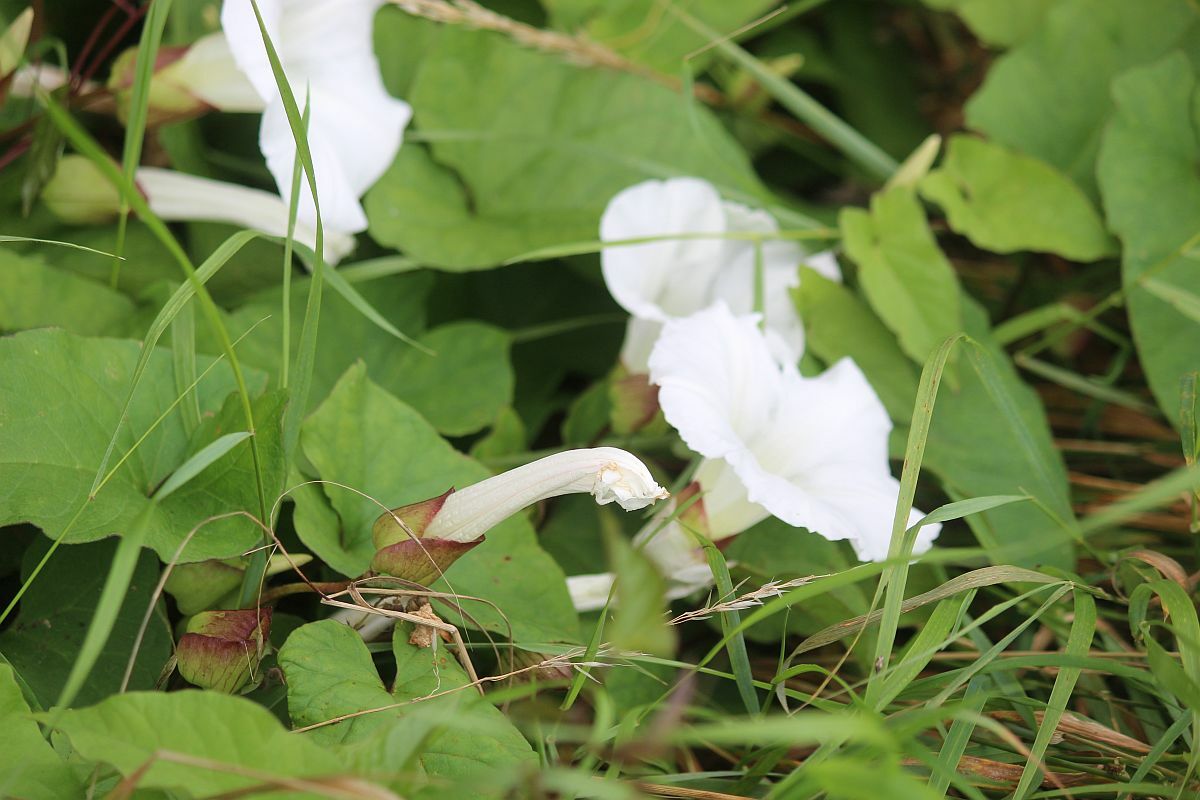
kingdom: Plantae
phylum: Tracheophyta
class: Magnoliopsida
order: Solanales
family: Convolvulaceae
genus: Calystegia
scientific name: Calystegia silvatica
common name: Large bindweed
